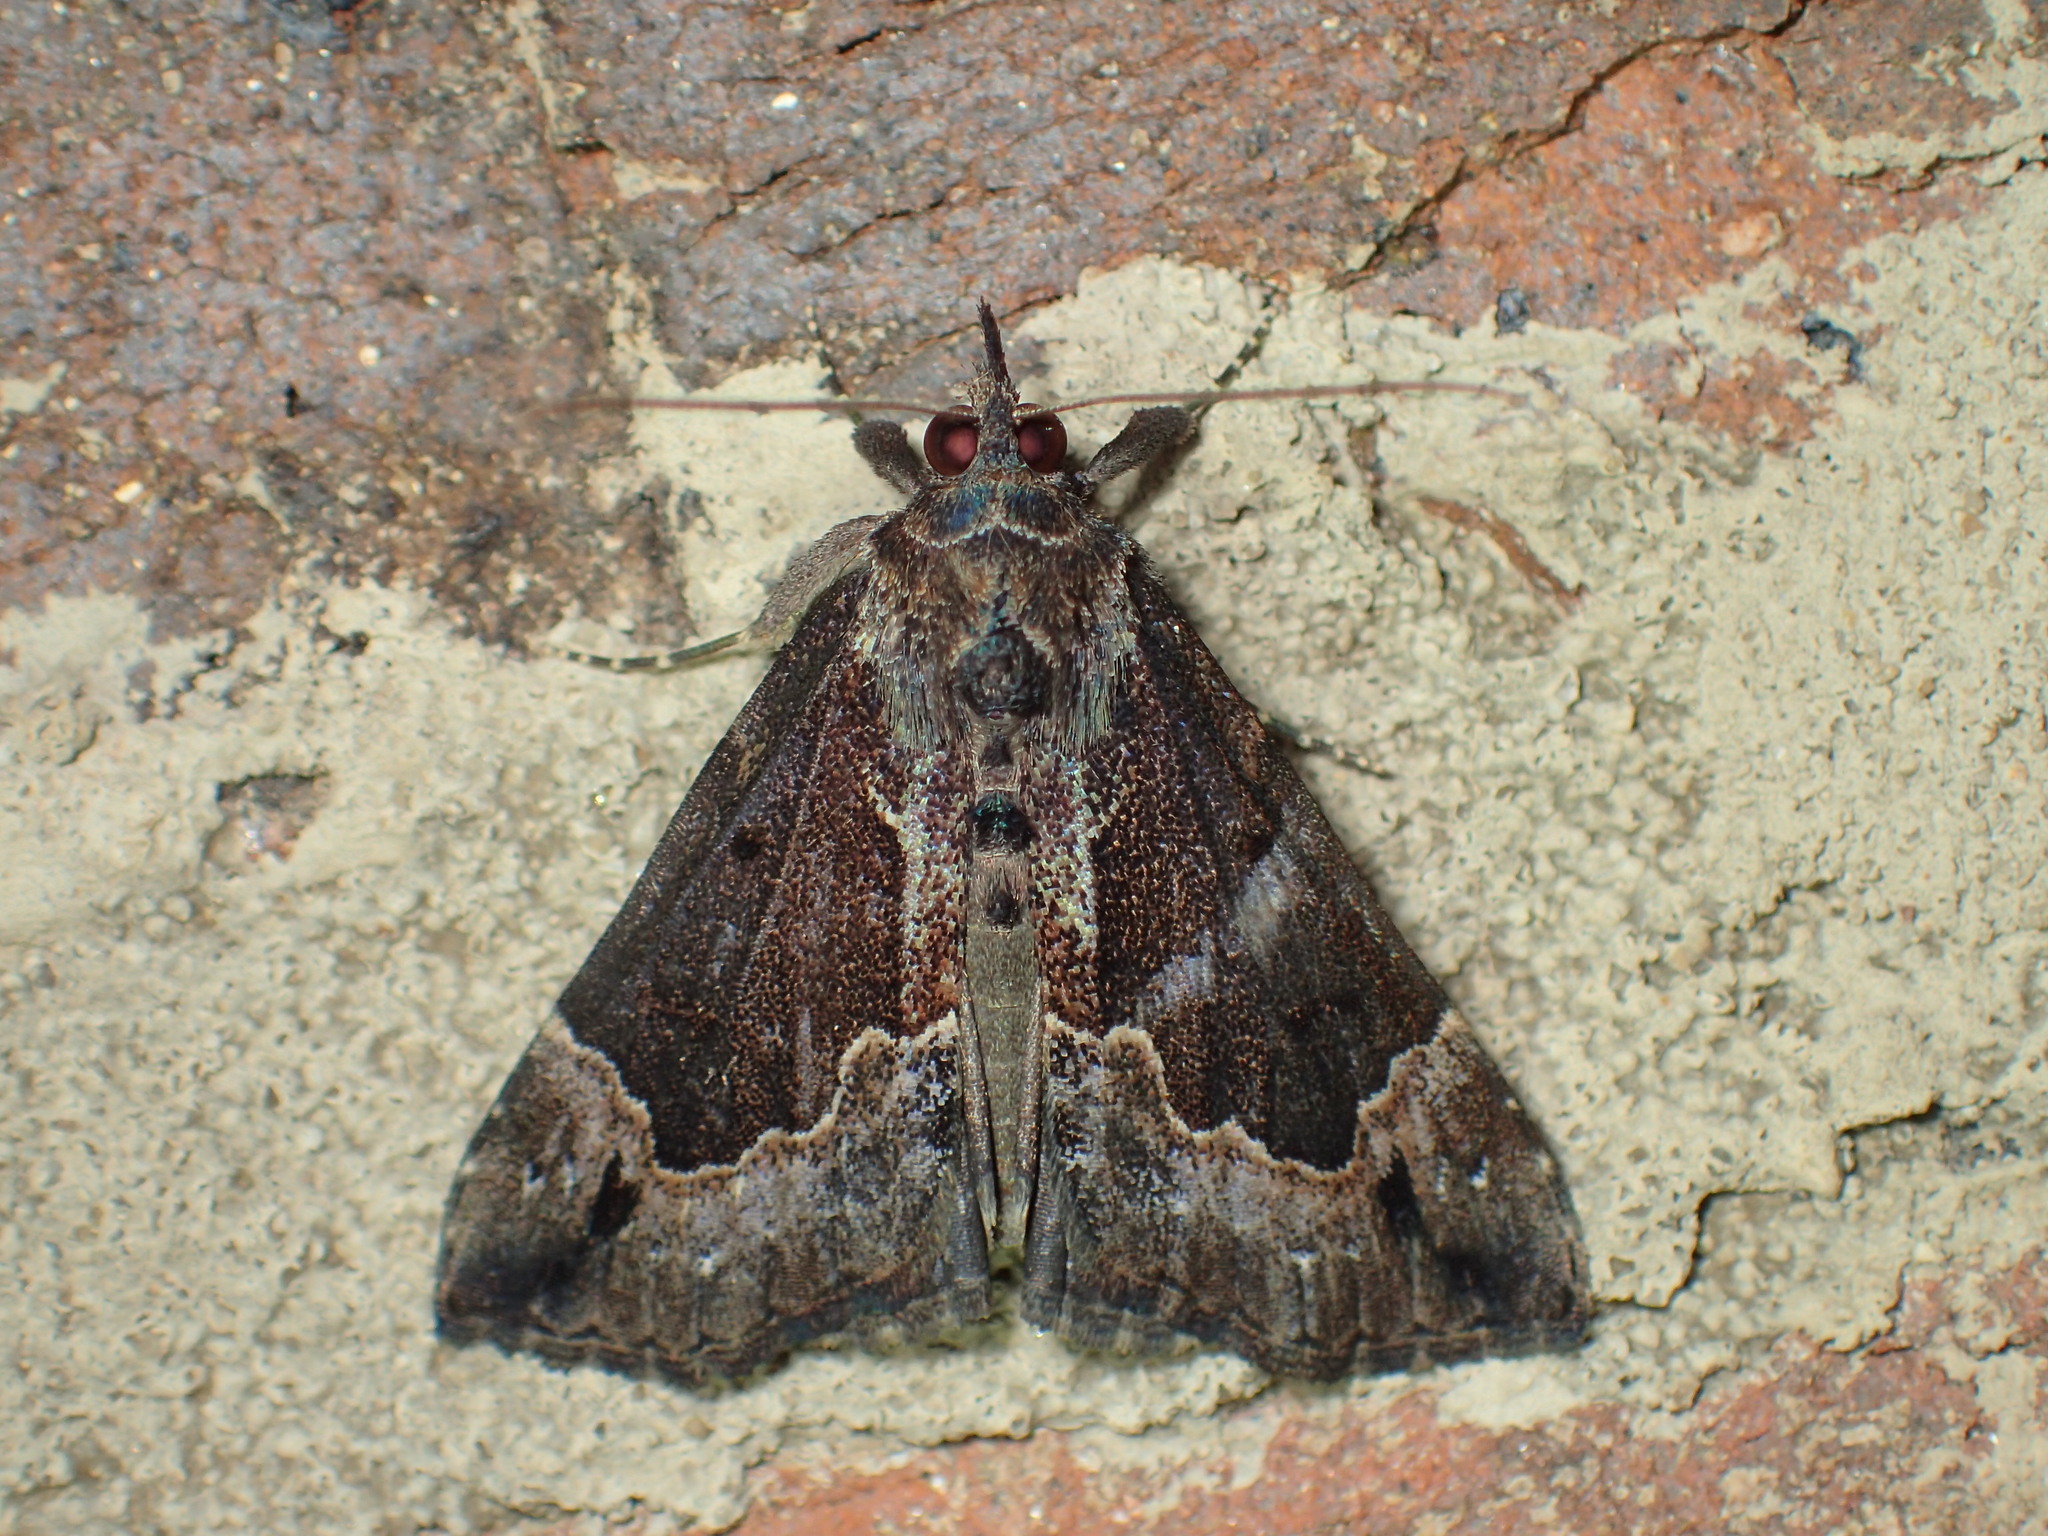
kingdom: Animalia
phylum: Arthropoda
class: Insecta
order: Lepidoptera
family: Erebidae
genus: Hypena
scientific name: Hypena palparia
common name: Mottled bomolocha moth
